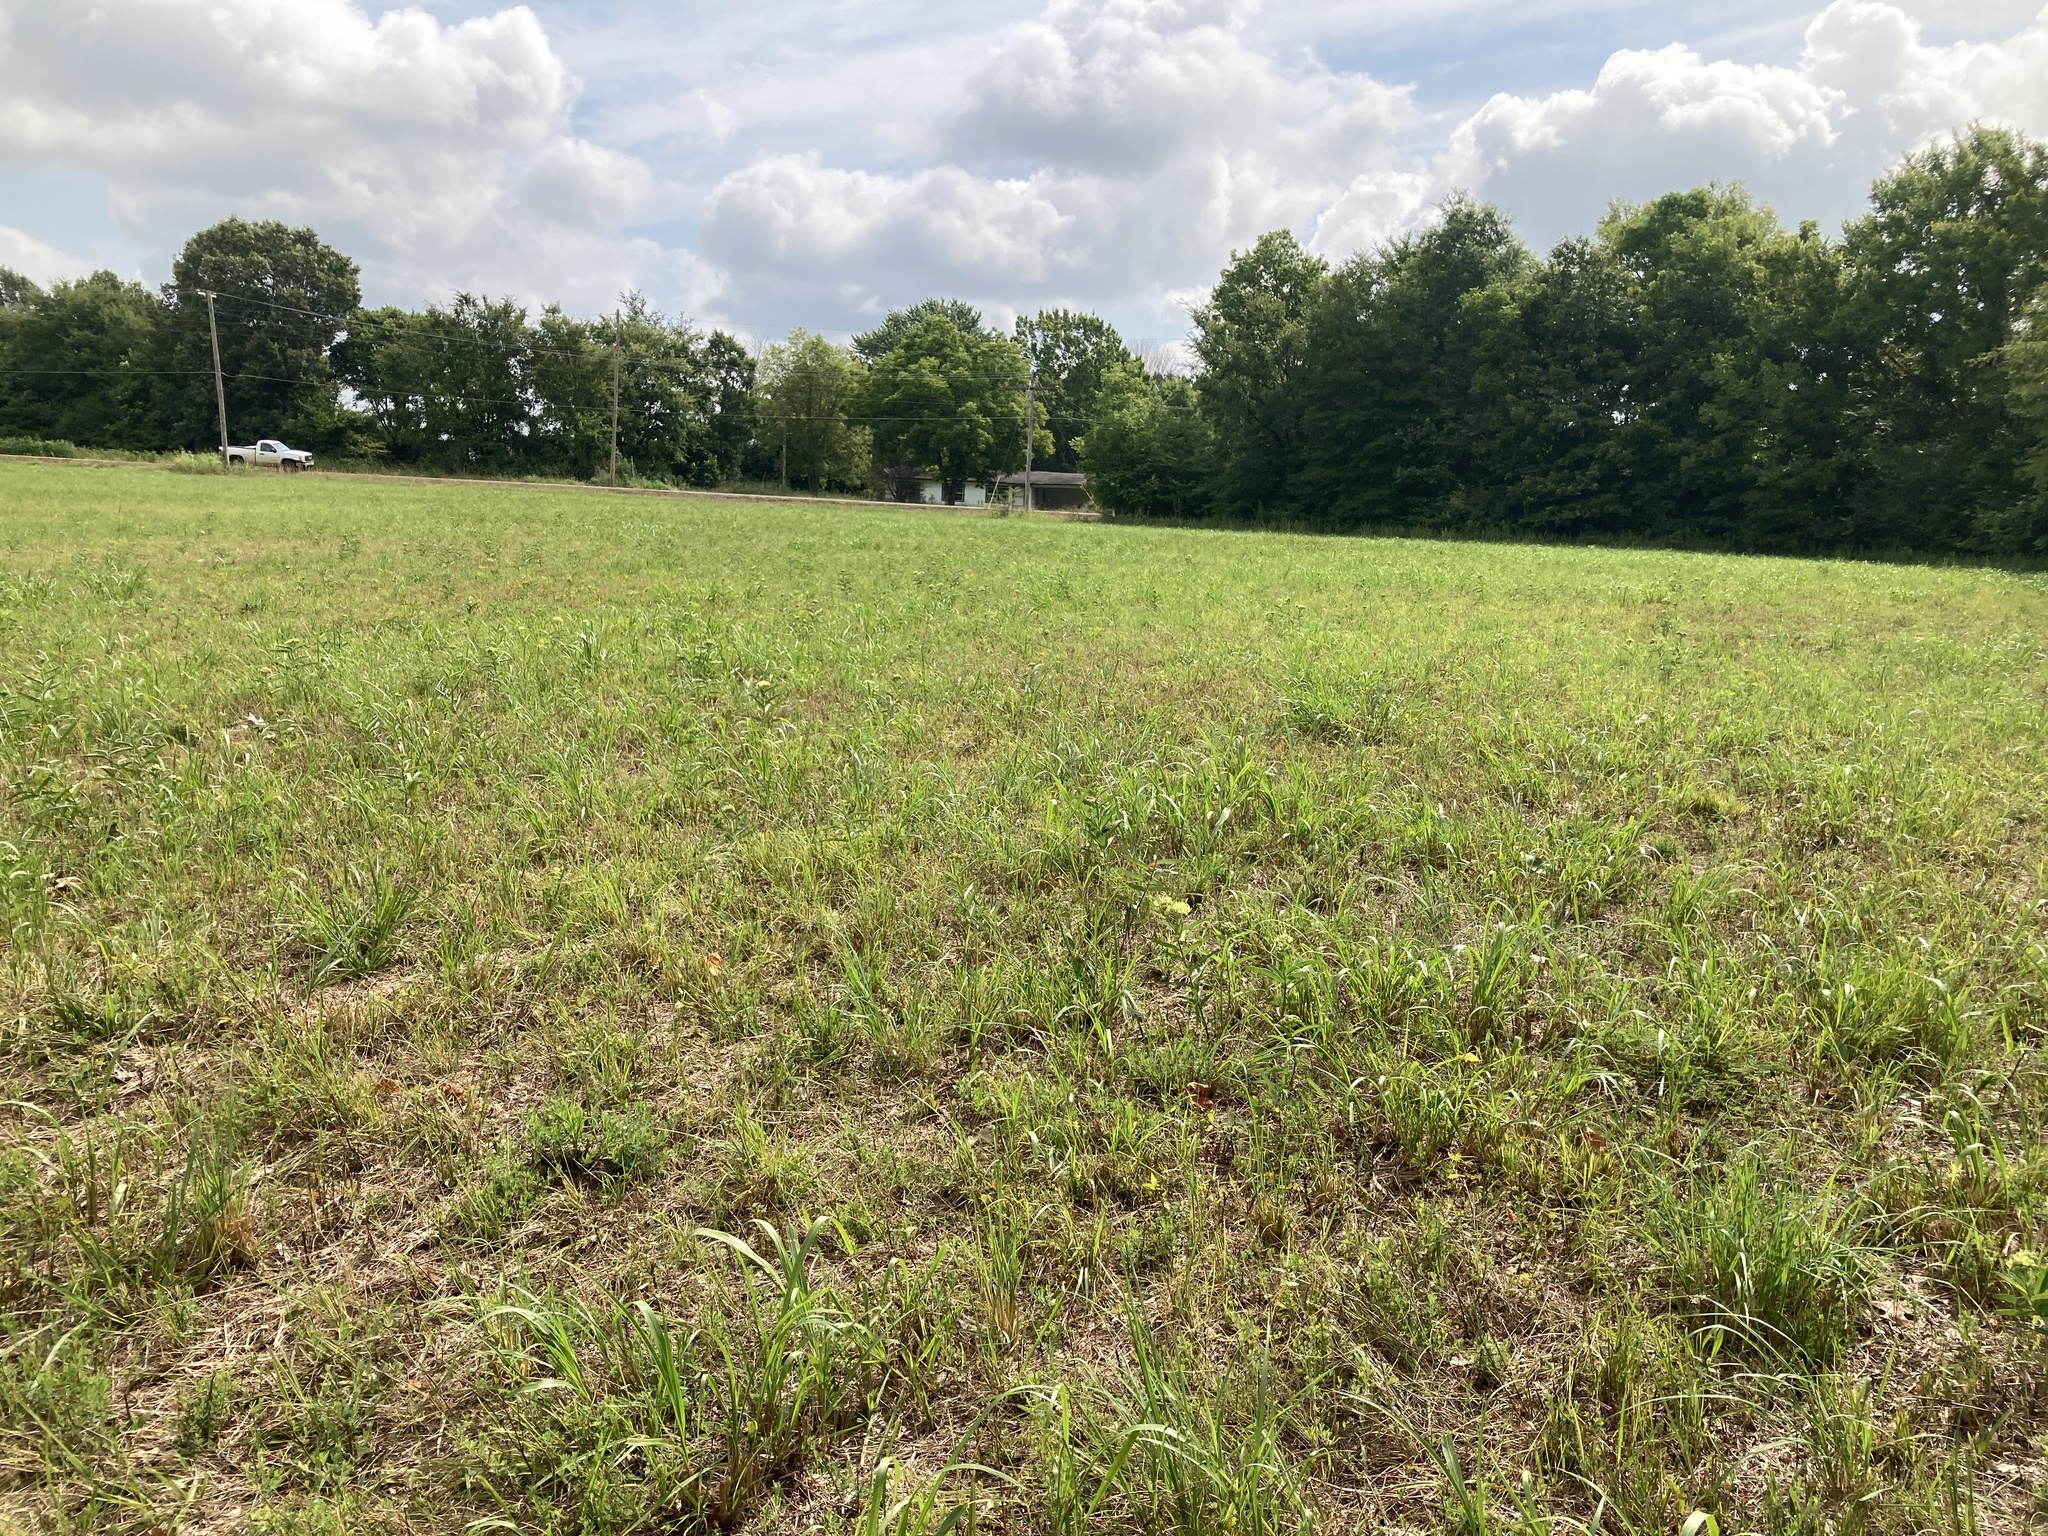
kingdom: Plantae
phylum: Tracheophyta
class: Magnoliopsida
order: Gentianales
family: Apocynaceae
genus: Asclepias
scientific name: Asclepias viridis
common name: Antelope-horns
